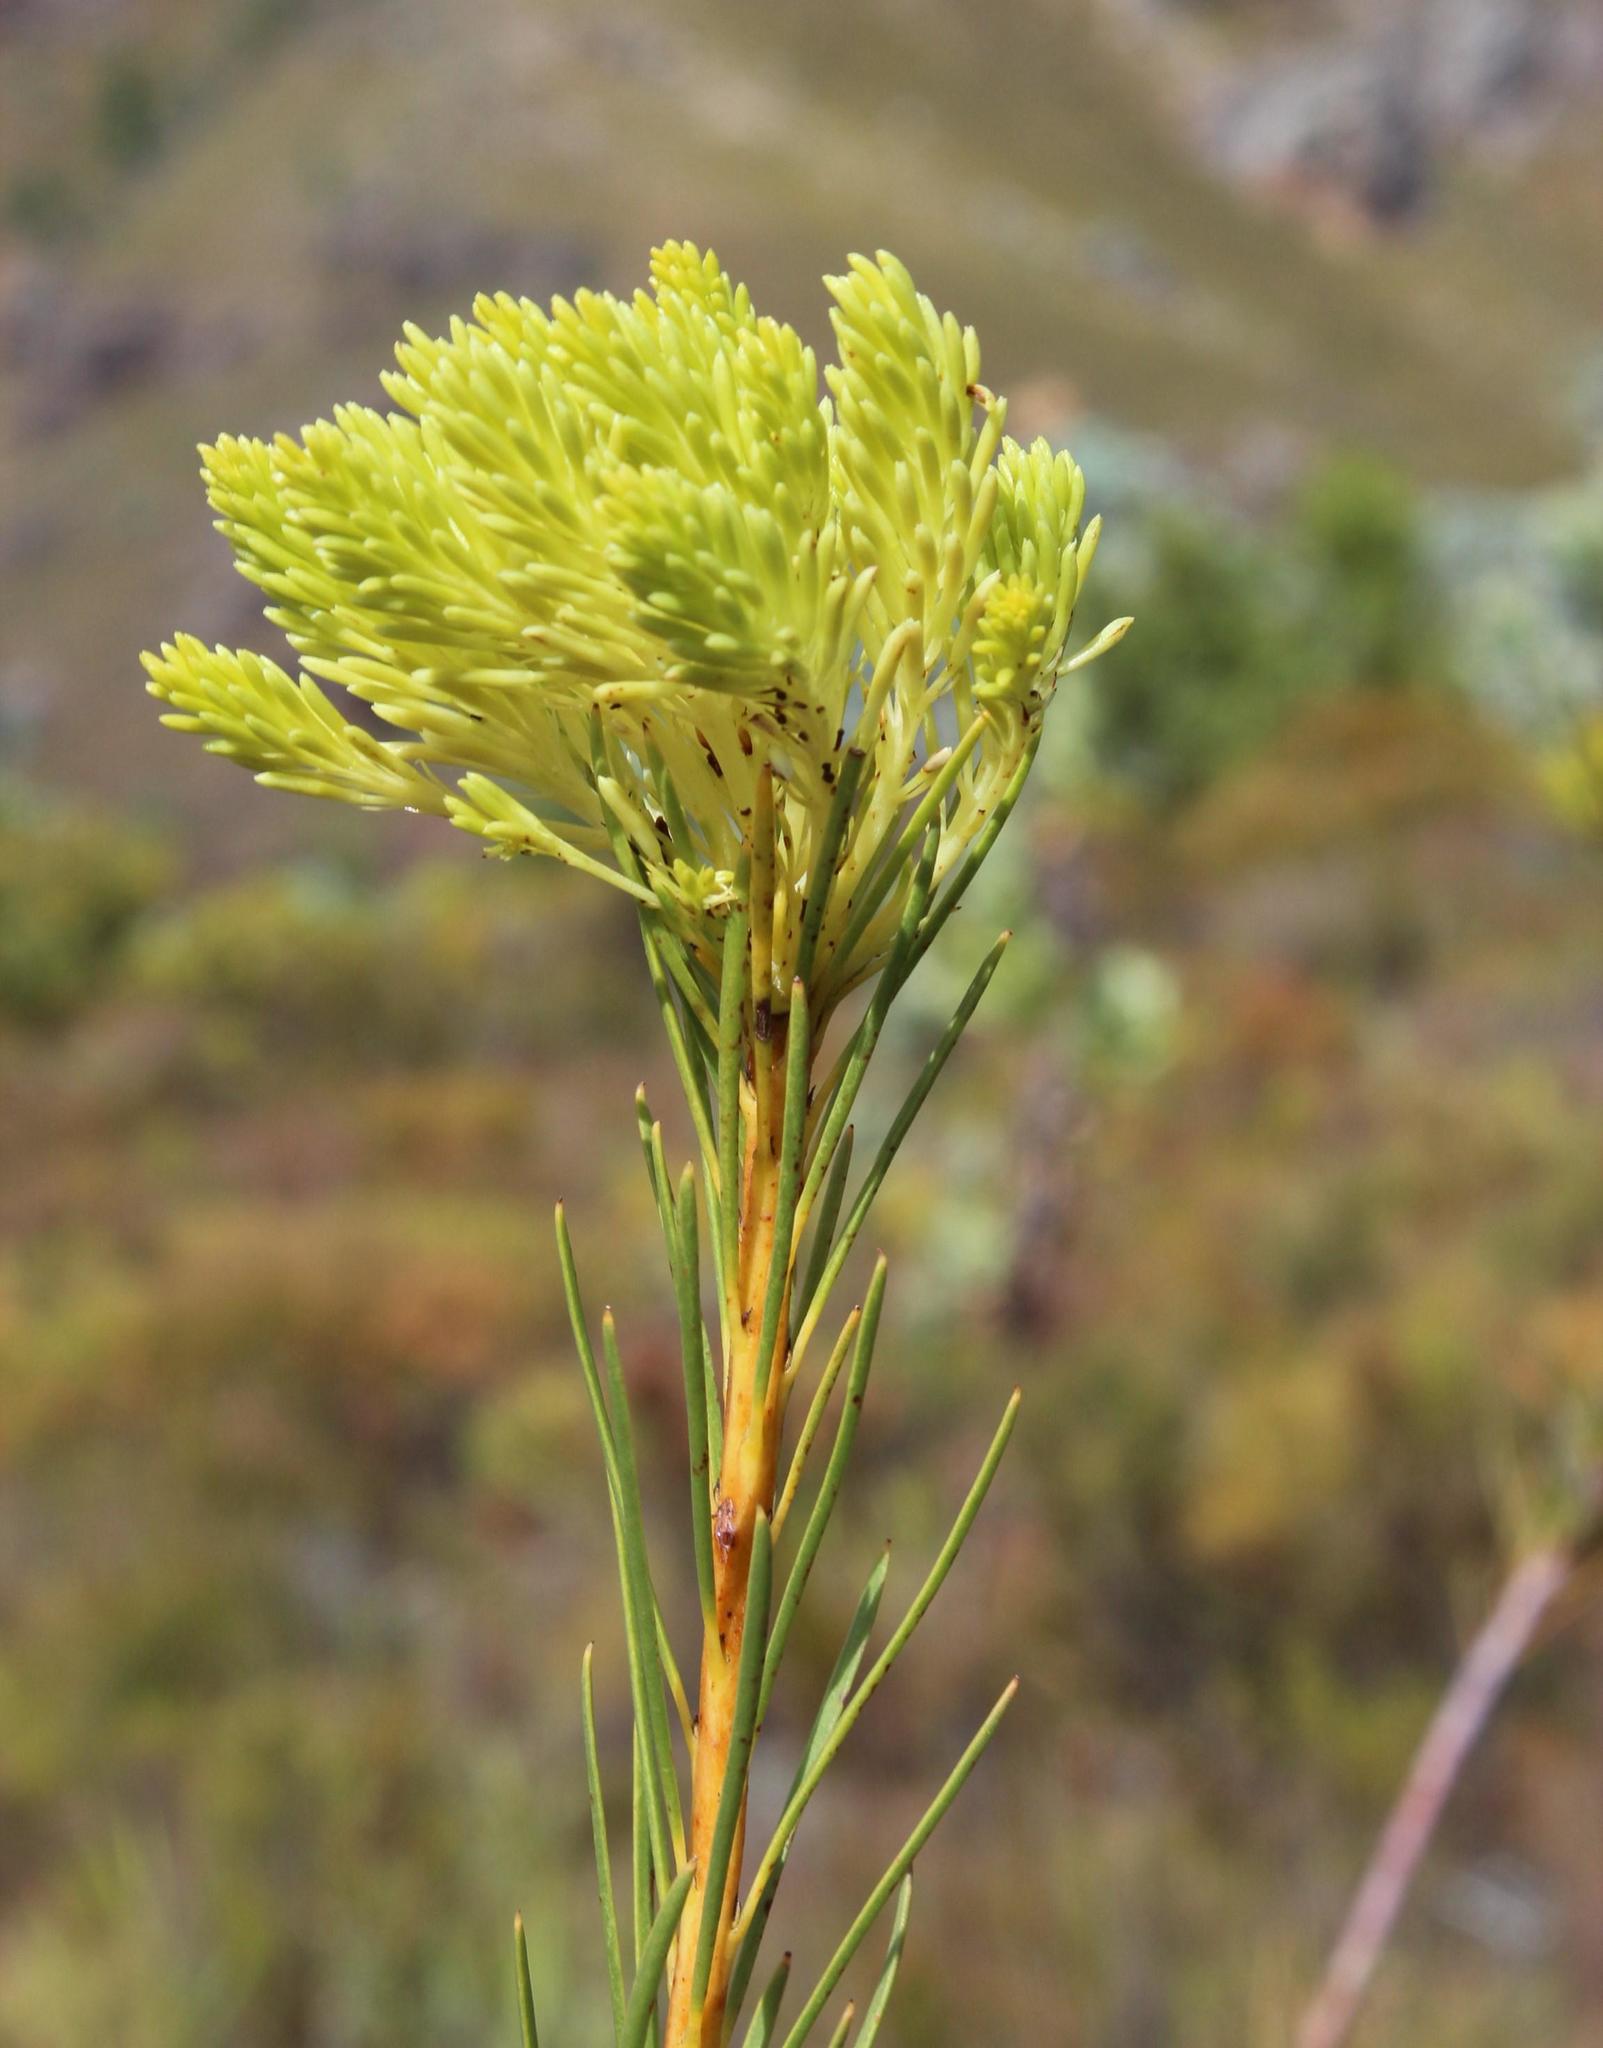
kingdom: Plantae
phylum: Tracheophyta
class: Magnoliopsida
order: Proteales
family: Proteaceae
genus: Aulax
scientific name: Aulax pallasia
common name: Needle-leaf featherbush
